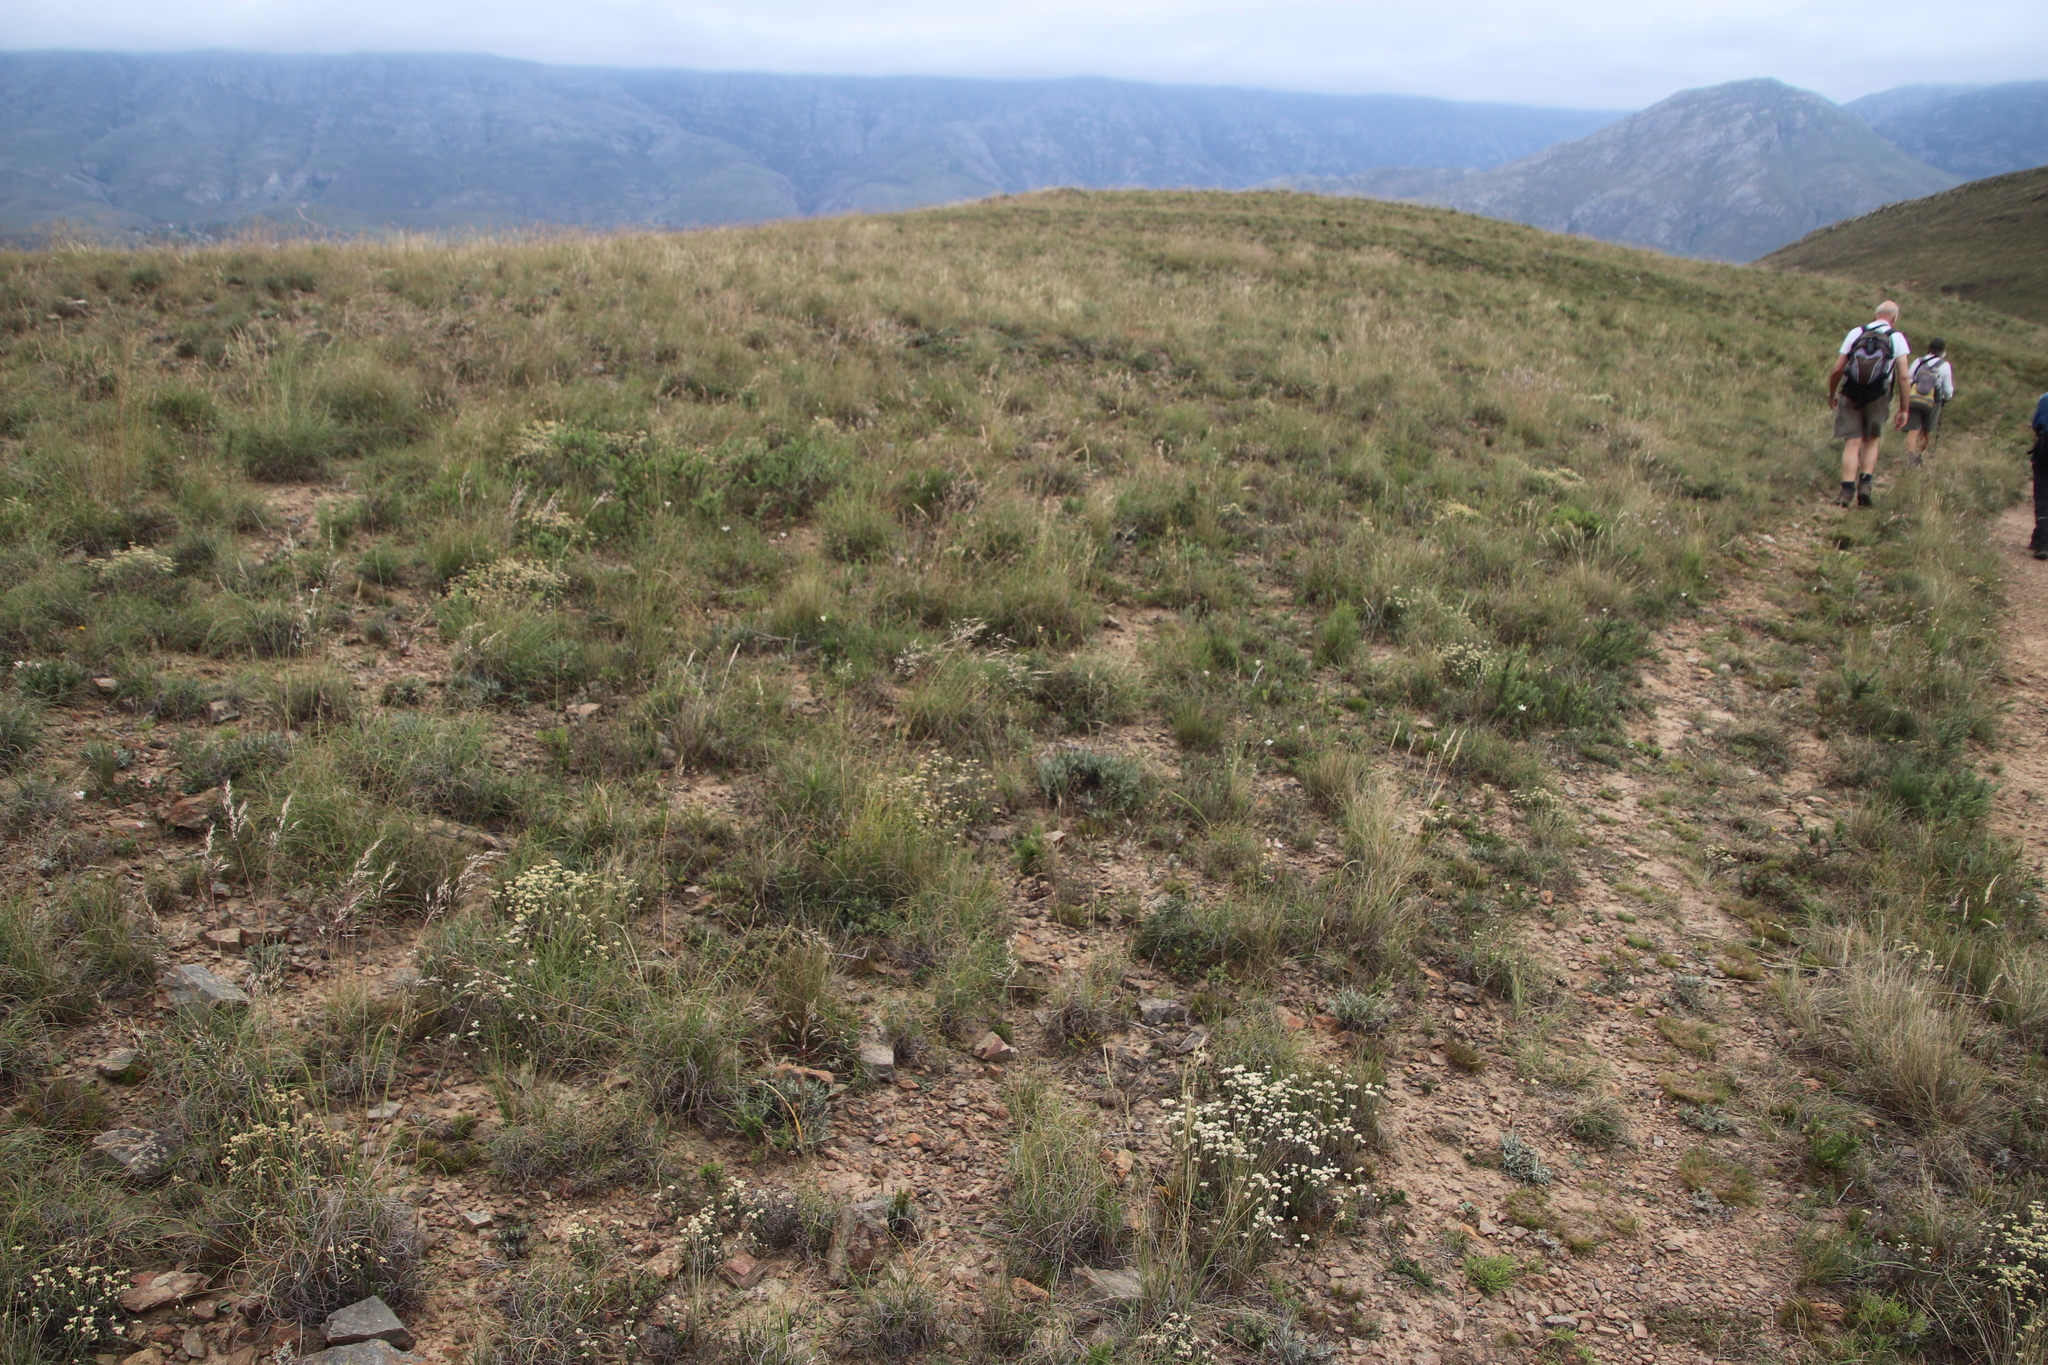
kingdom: Plantae
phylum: Tracheophyta
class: Magnoliopsida
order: Asterales
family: Asteraceae
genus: Helichrysum
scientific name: Helichrysum teretifolium
